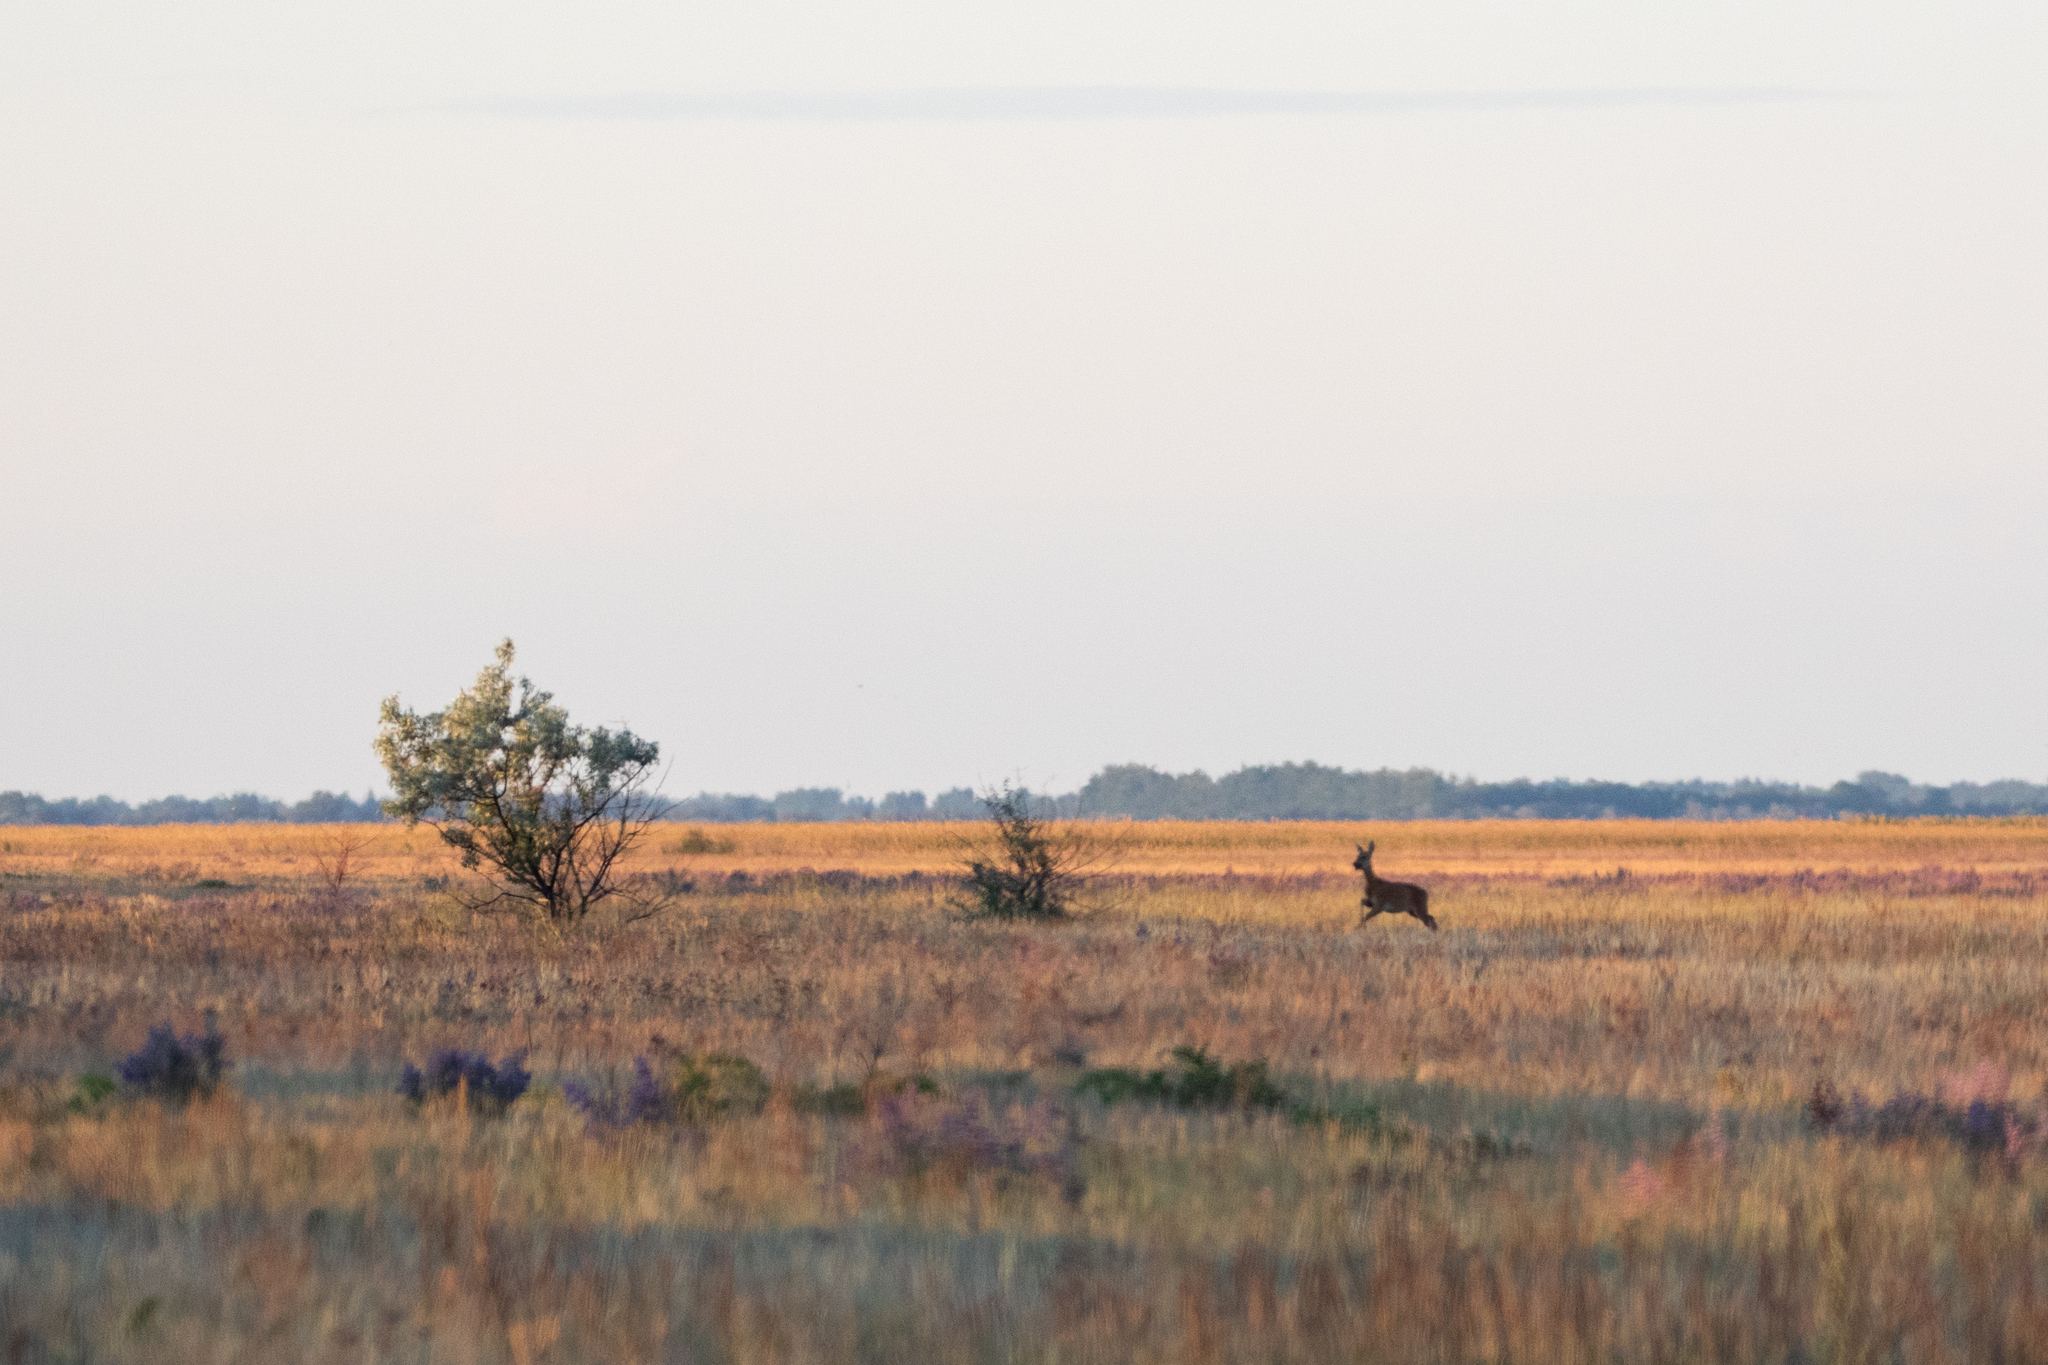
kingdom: Animalia
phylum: Chordata
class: Mammalia
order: Artiodactyla
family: Cervidae
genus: Capreolus
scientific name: Capreolus pygargus
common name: Siberian roe
